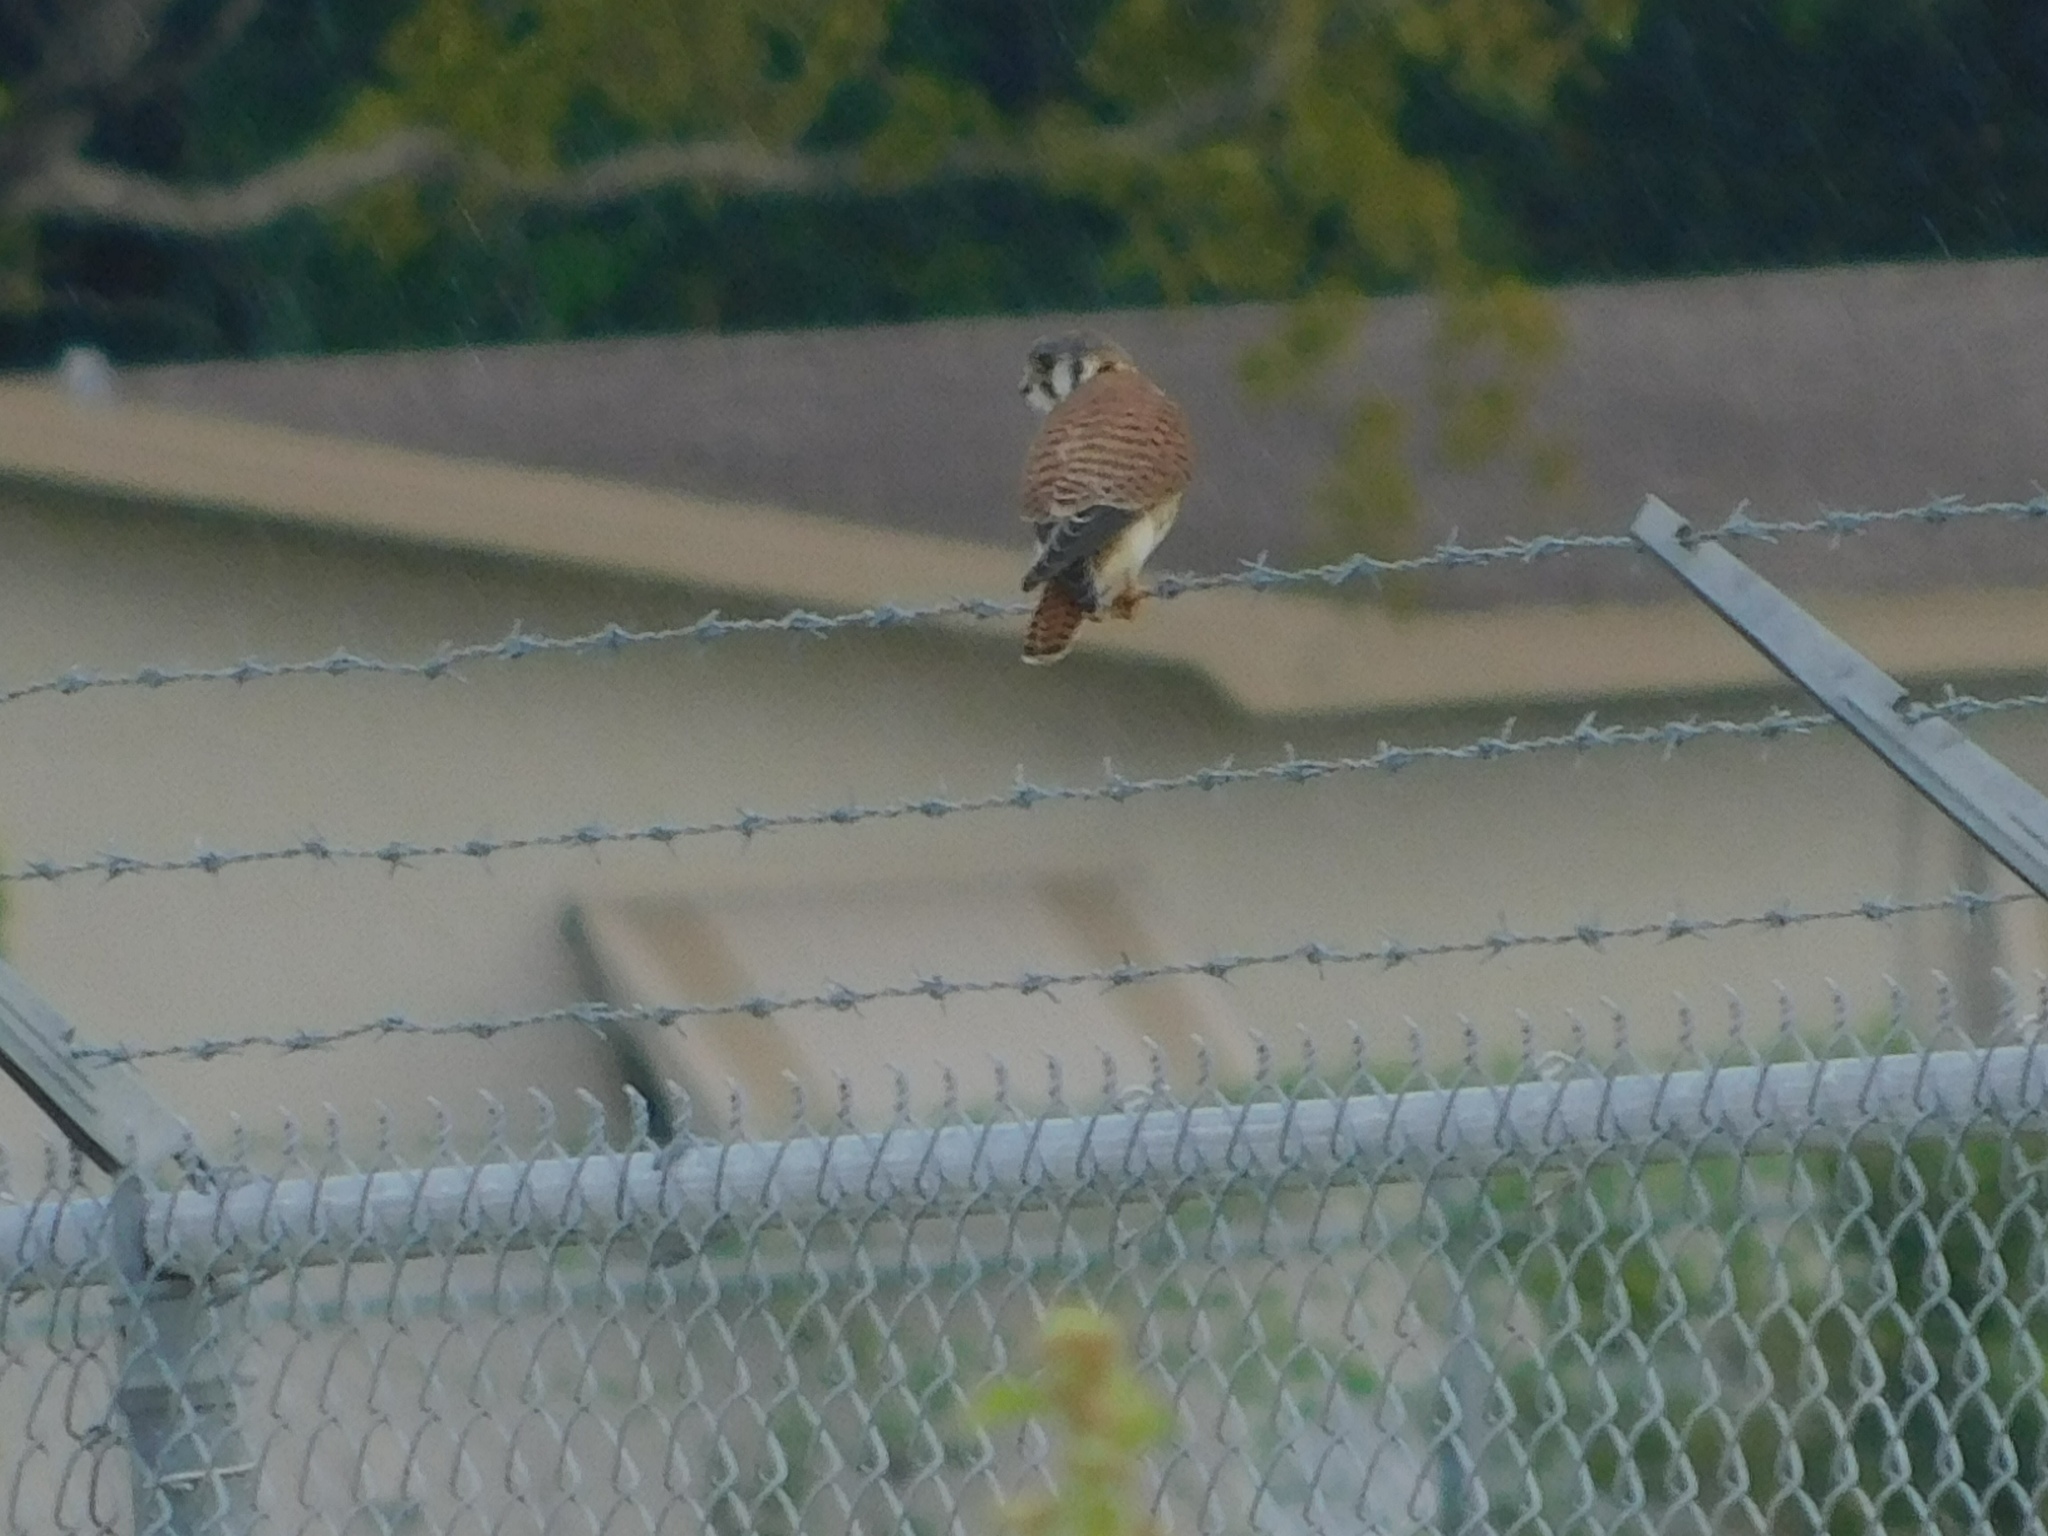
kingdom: Animalia
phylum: Chordata
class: Aves
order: Falconiformes
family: Falconidae
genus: Falco
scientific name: Falco sparverius
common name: American kestrel
